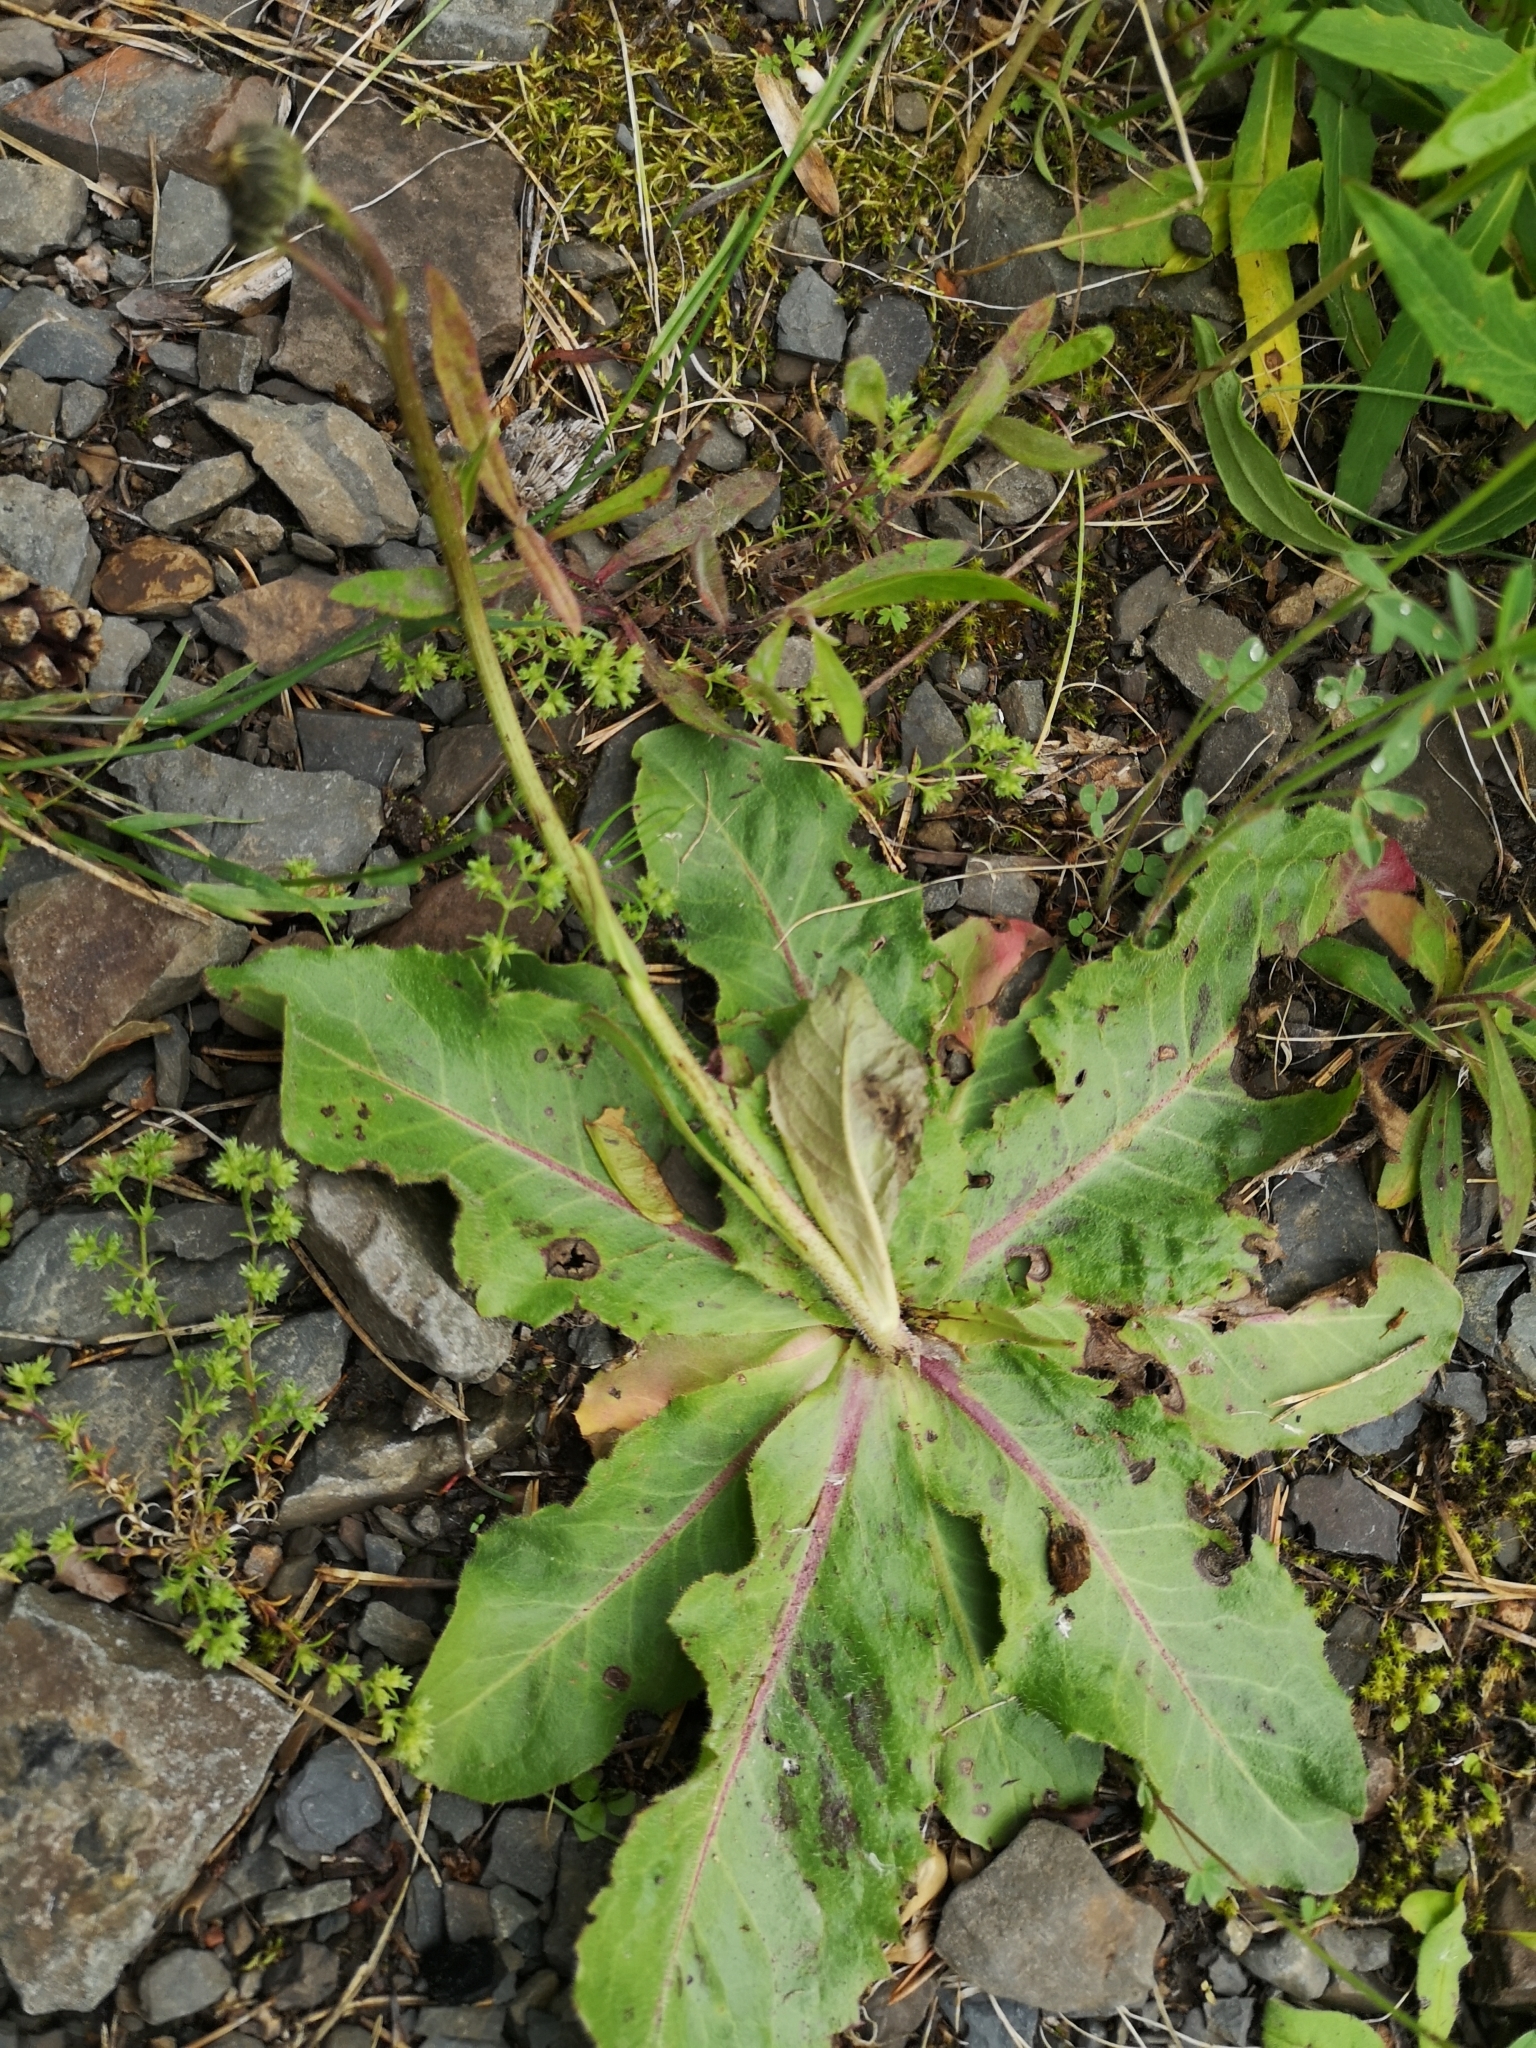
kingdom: Plantae
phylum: Tracheophyta
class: Magnoliopsida
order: Asterales
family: Asteraceae
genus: Trommsdorffia
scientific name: Trommsdorffia maculata
